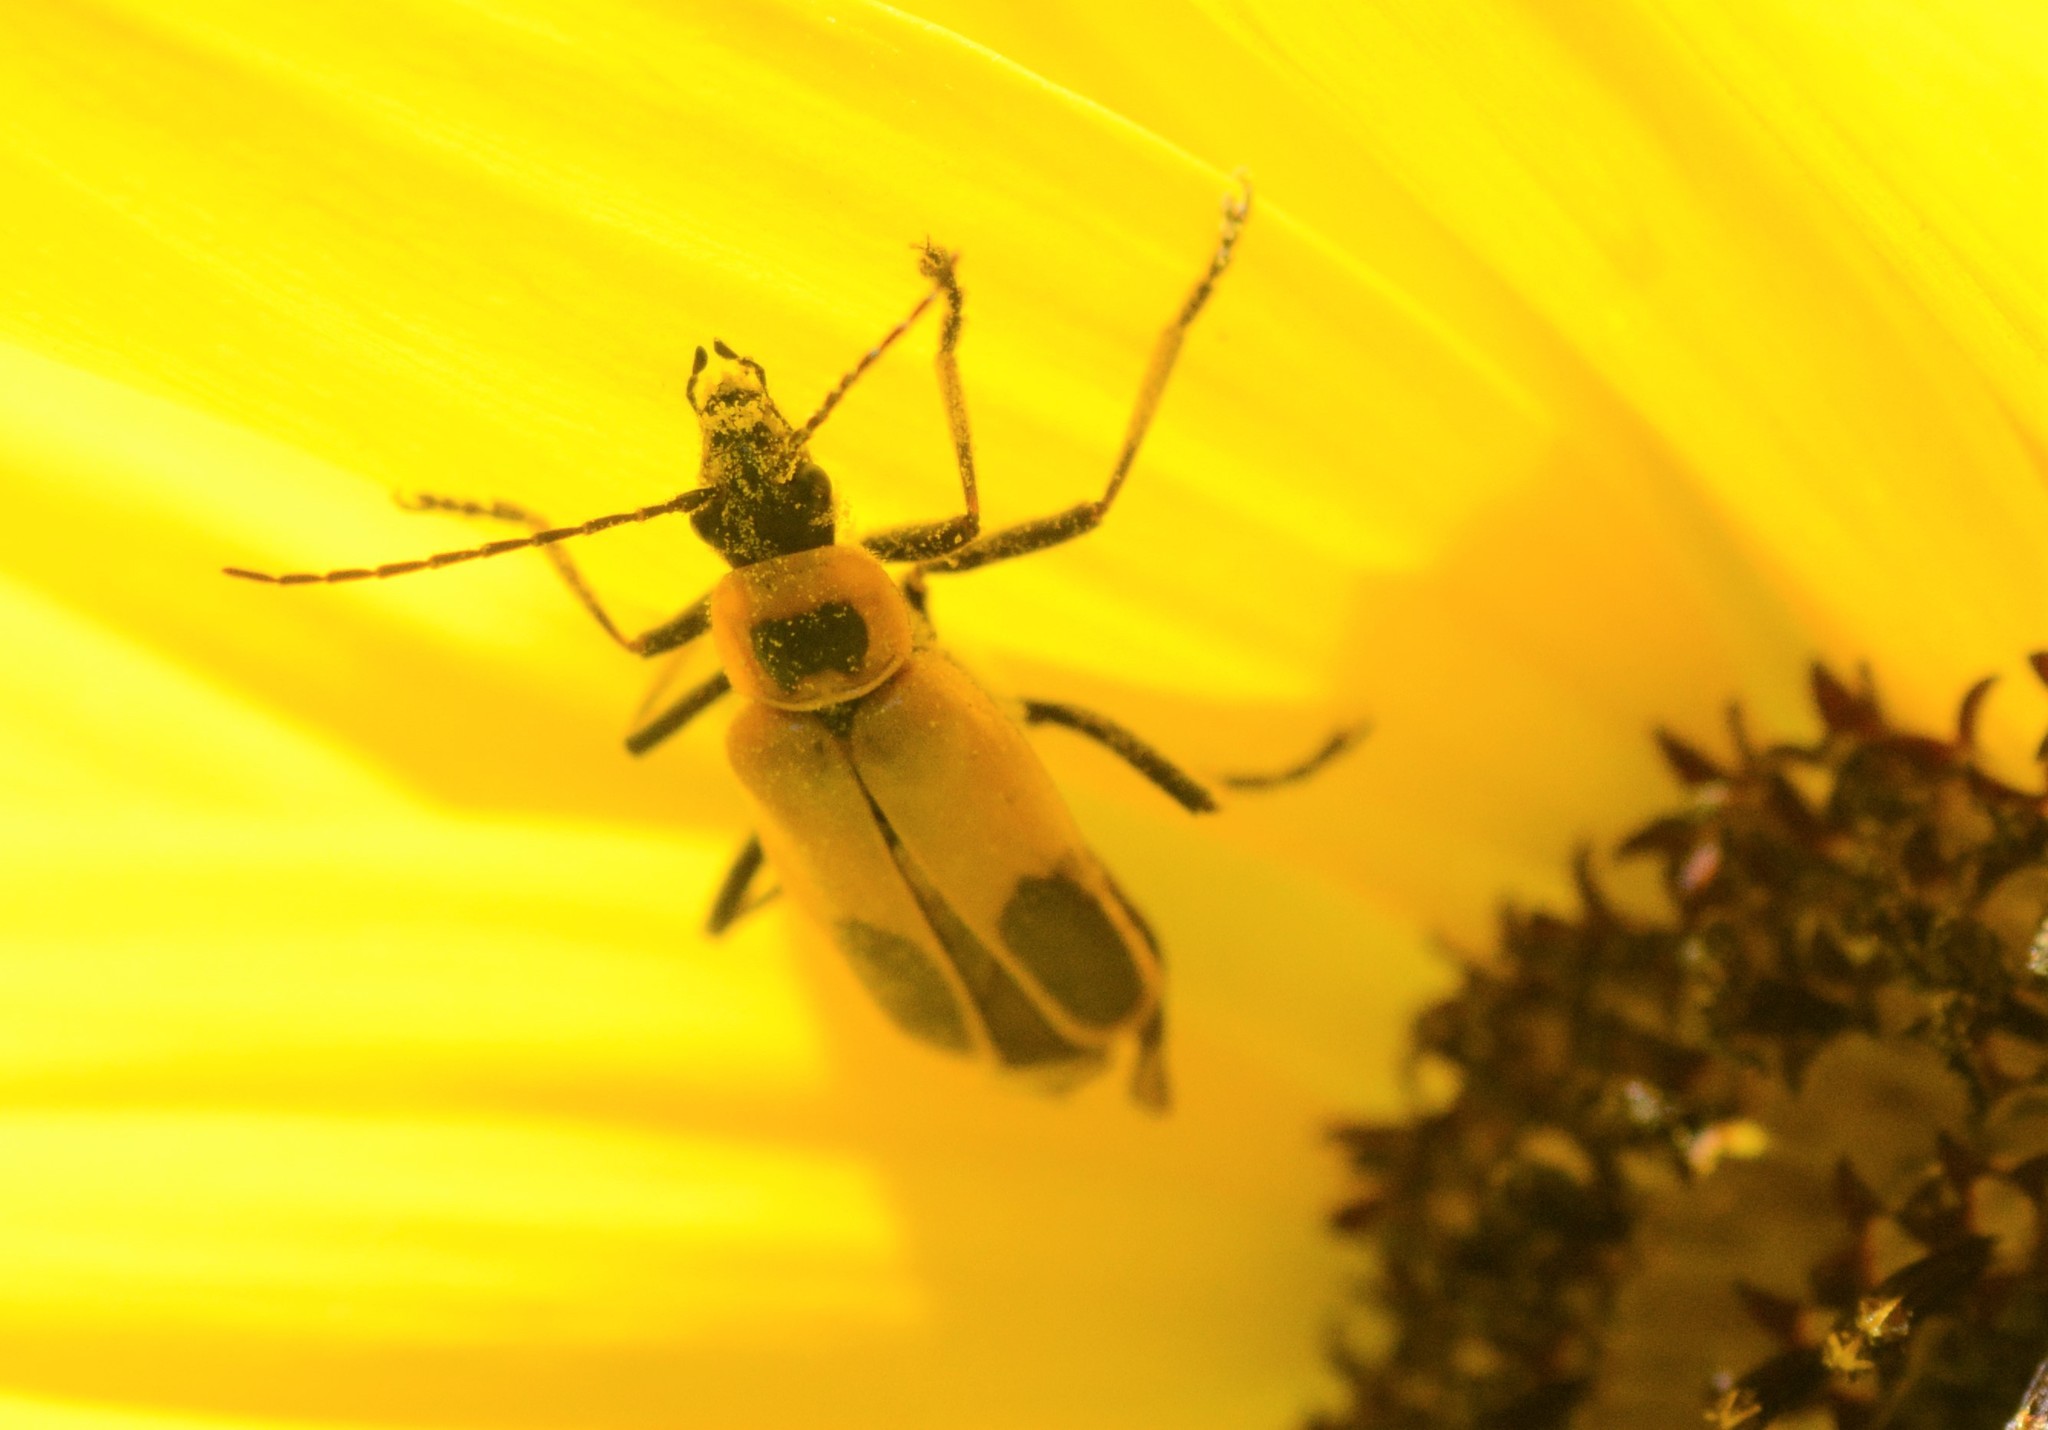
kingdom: Animalia
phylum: Arthropoda
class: Insecta
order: Coleoptera
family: Cantharidae
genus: Chauliognathus
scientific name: Chauliognathus pensylvanicus
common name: Goldenrod soldier beetle
